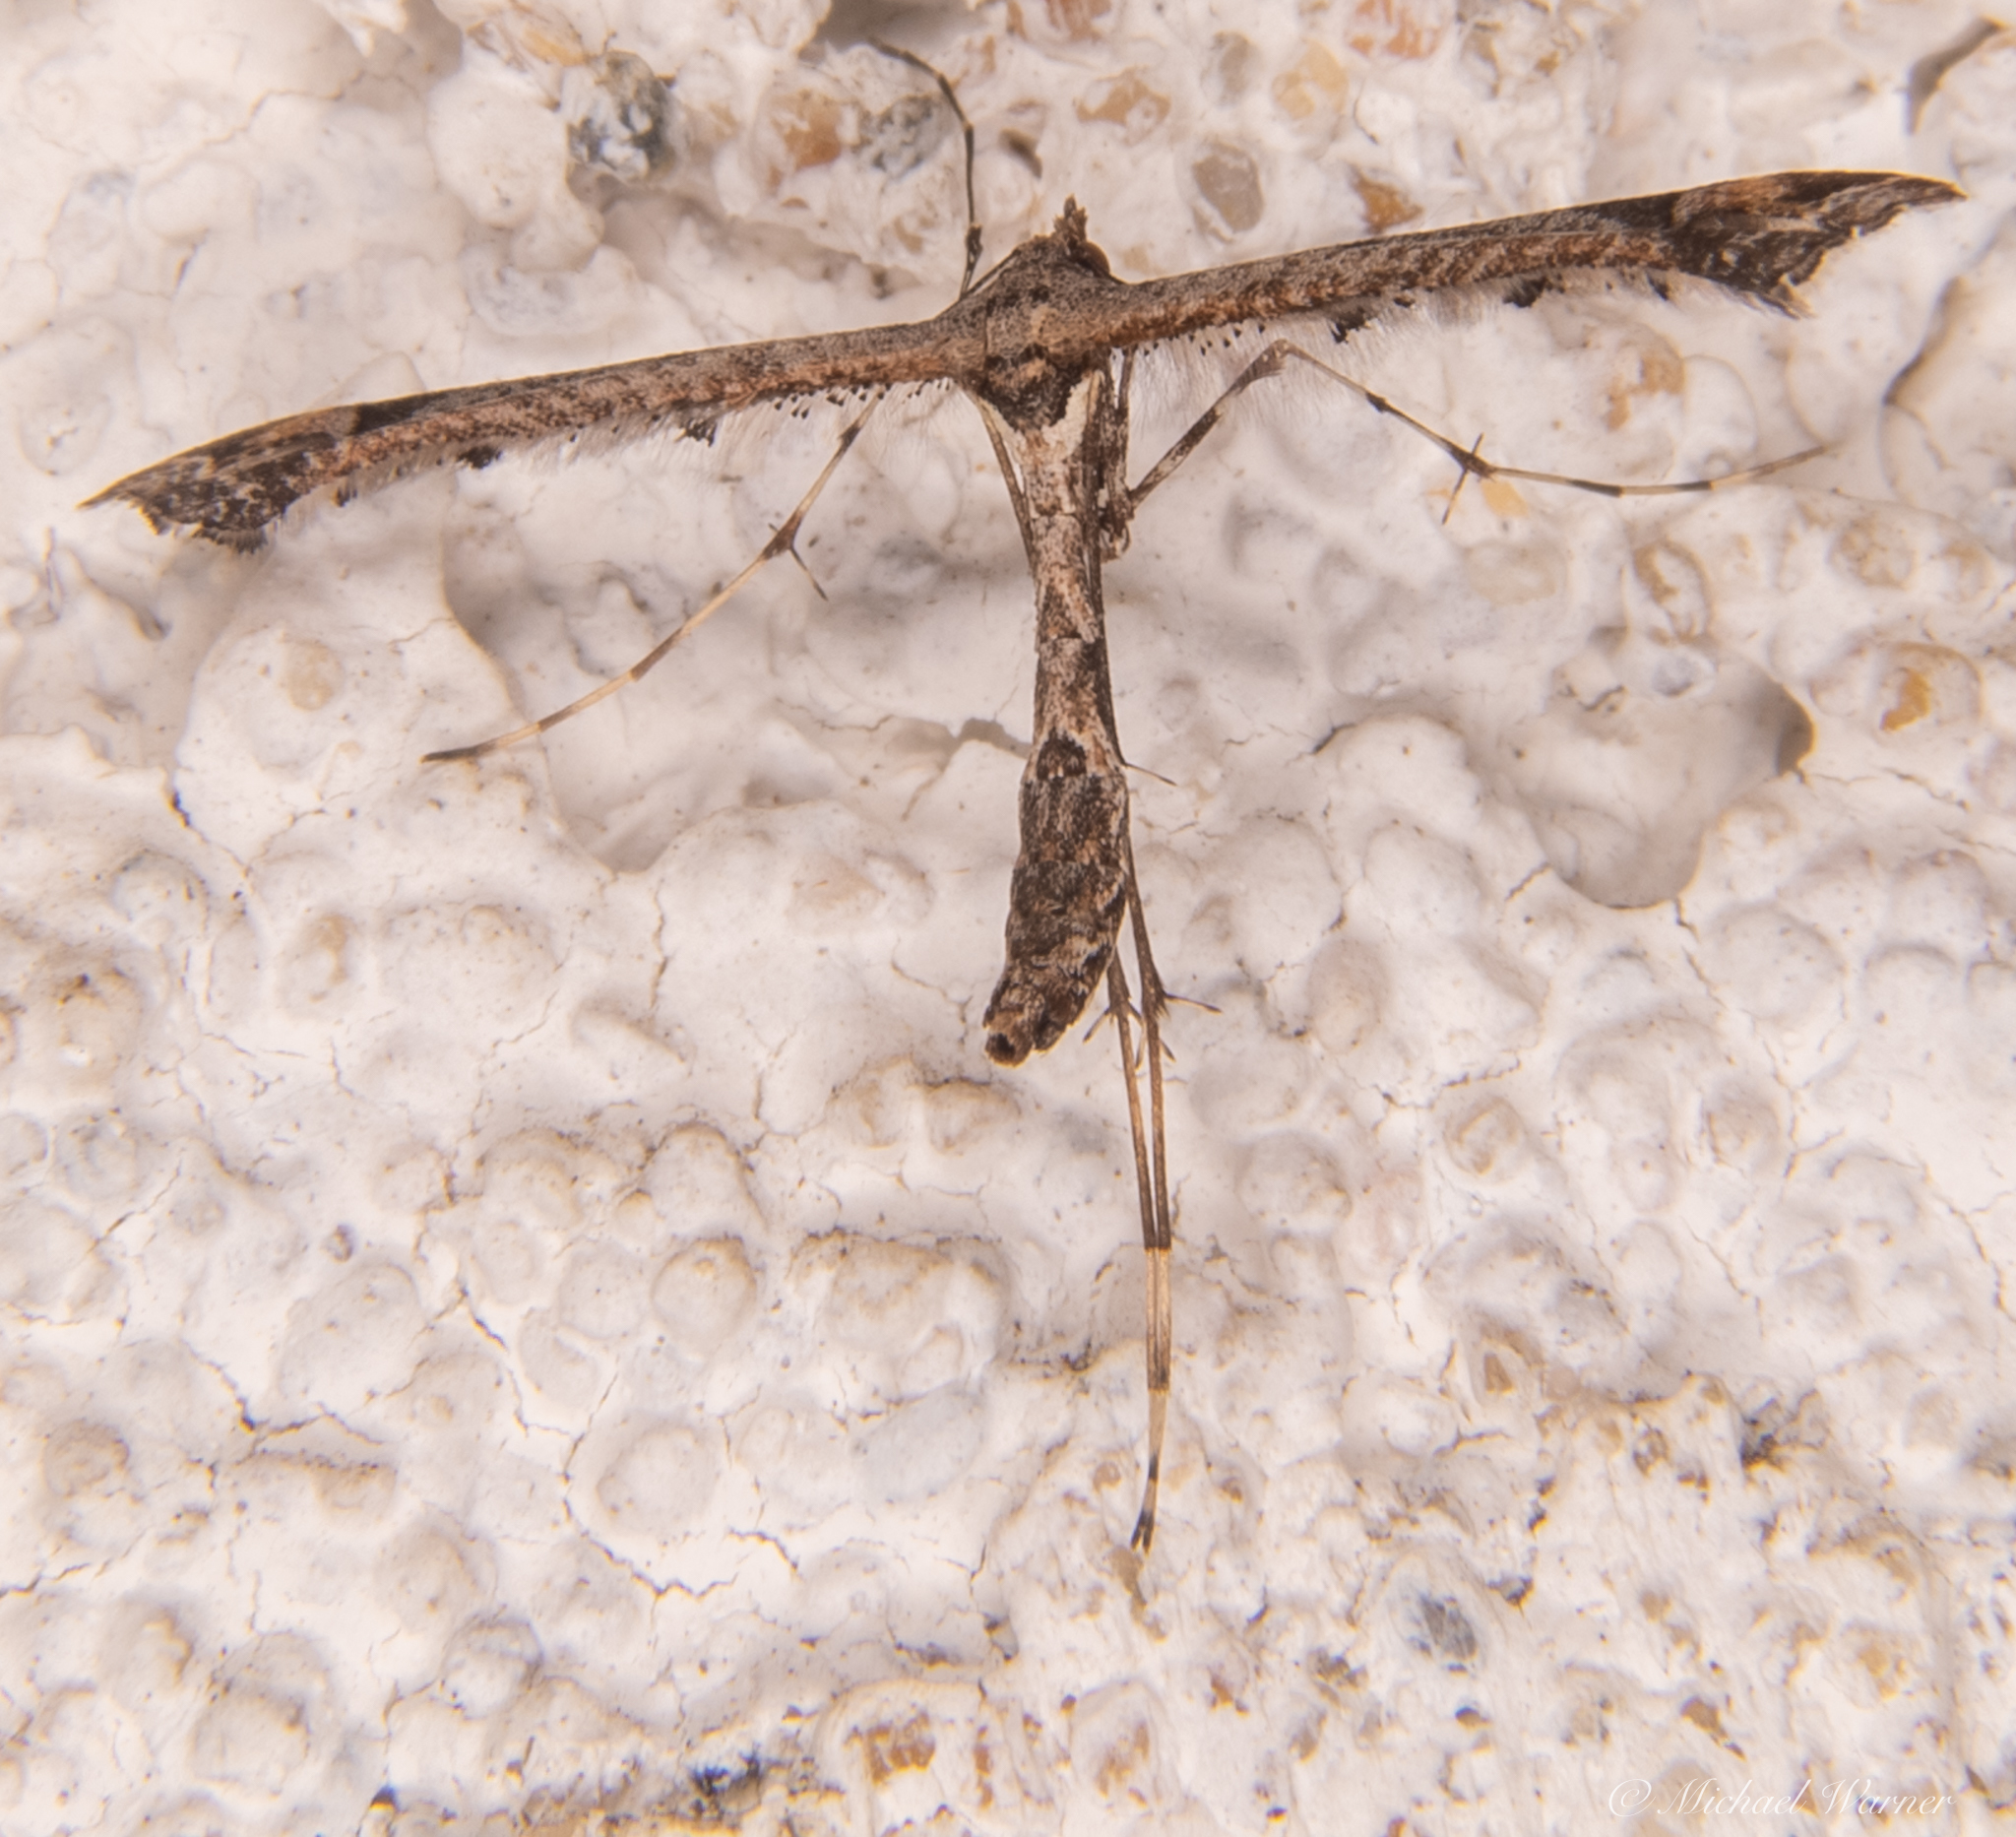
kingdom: Animalia
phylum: Arthropoda
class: Insecta
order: Lepidoptera
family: Pterophoridae
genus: Anstenoptilia
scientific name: Anstenoptilia marmarodactyla
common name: Moth
